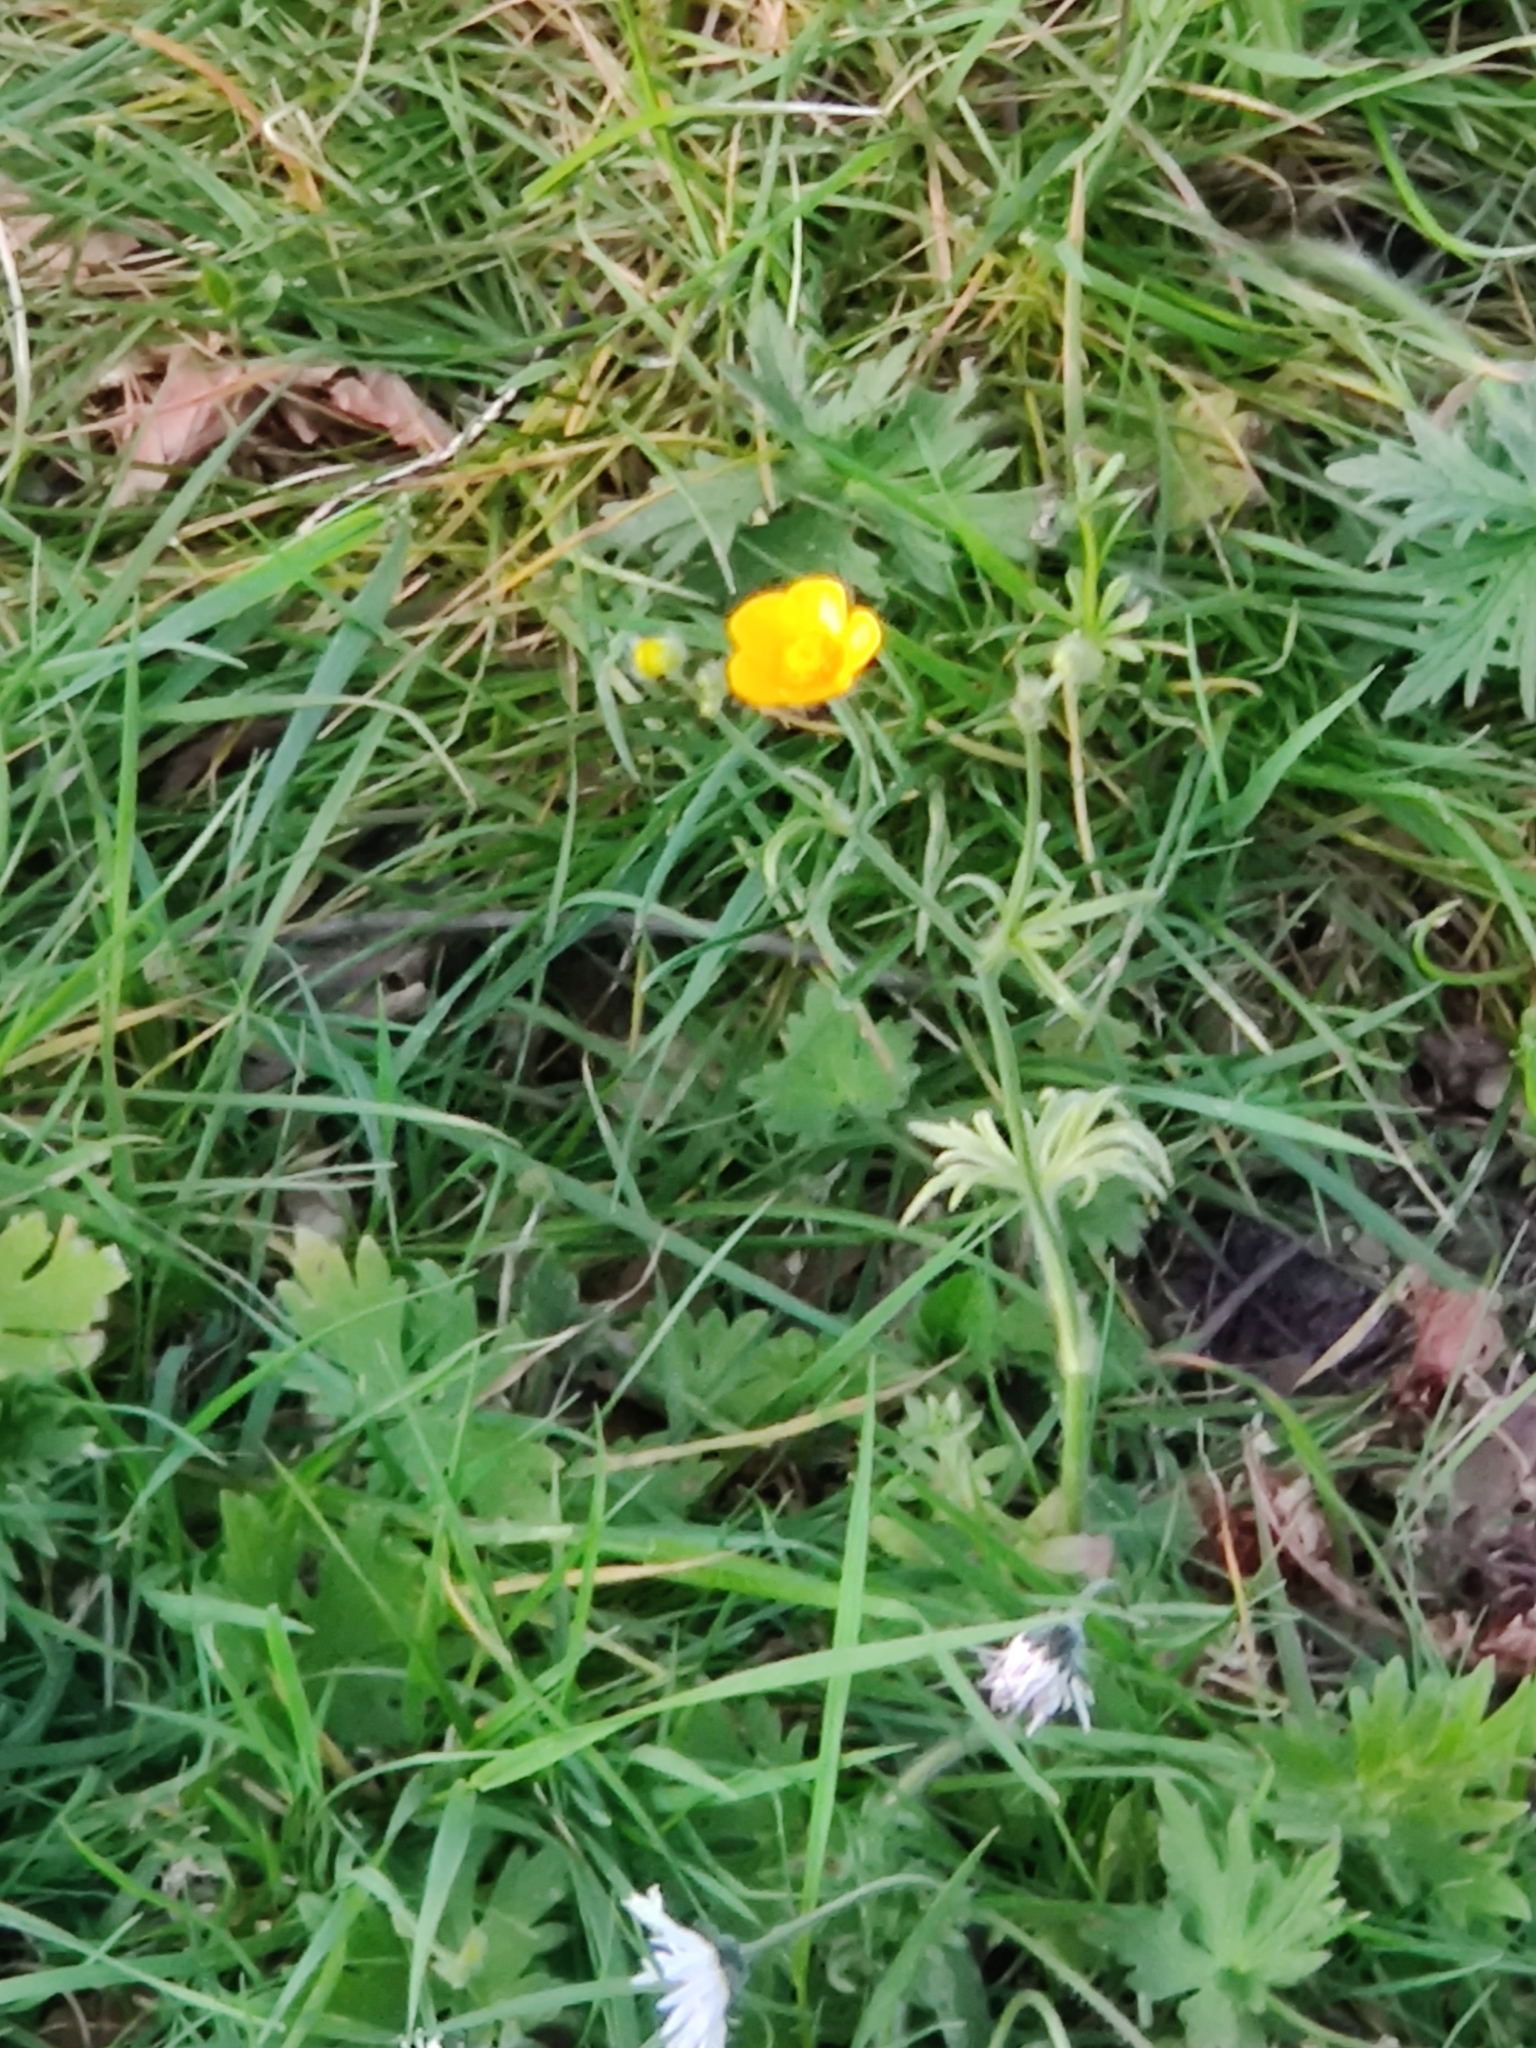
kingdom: Plantae
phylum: Tracheophyta
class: Magnoliopsida
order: Ranunculales
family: Ranunculaceae
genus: Ranunculus
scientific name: Ranunculus acris
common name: Meadow buttercup
